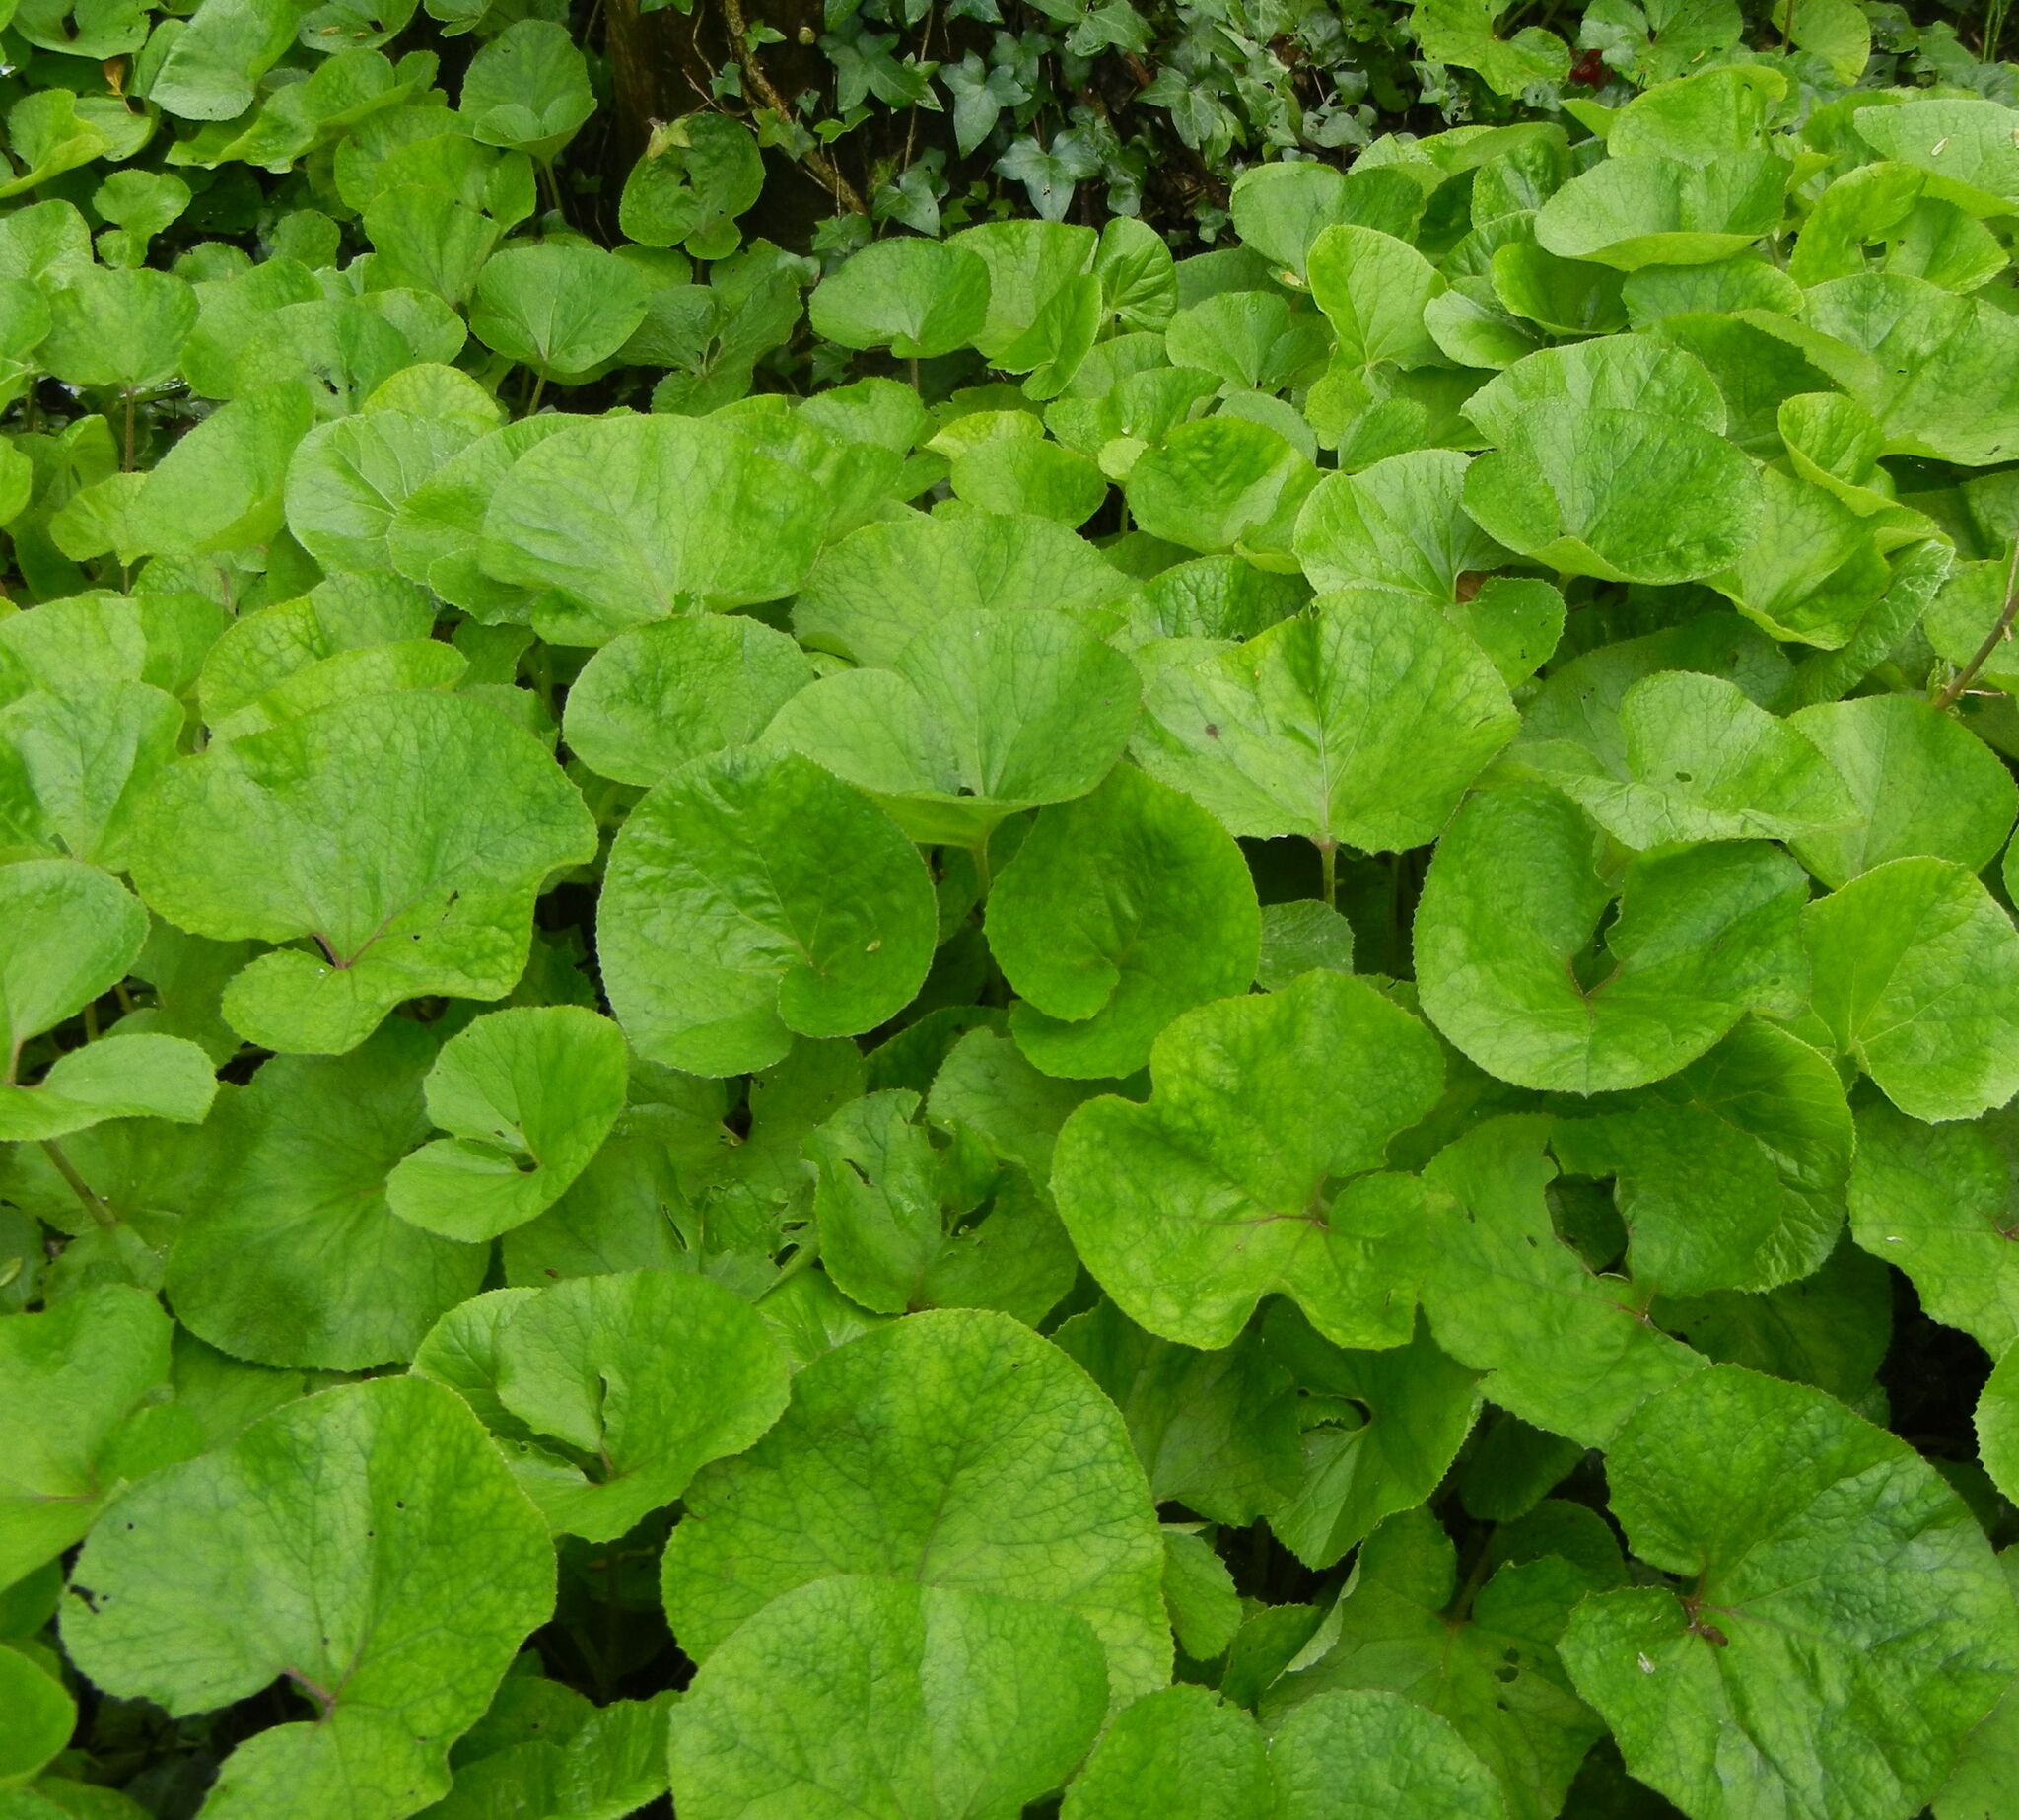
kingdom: Plantae
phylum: Tracheophyta
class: Magnoliopsida
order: Asterales
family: Asteraceae
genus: Petasites
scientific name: Petasites pyrenaicus
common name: Winter heliotrope
